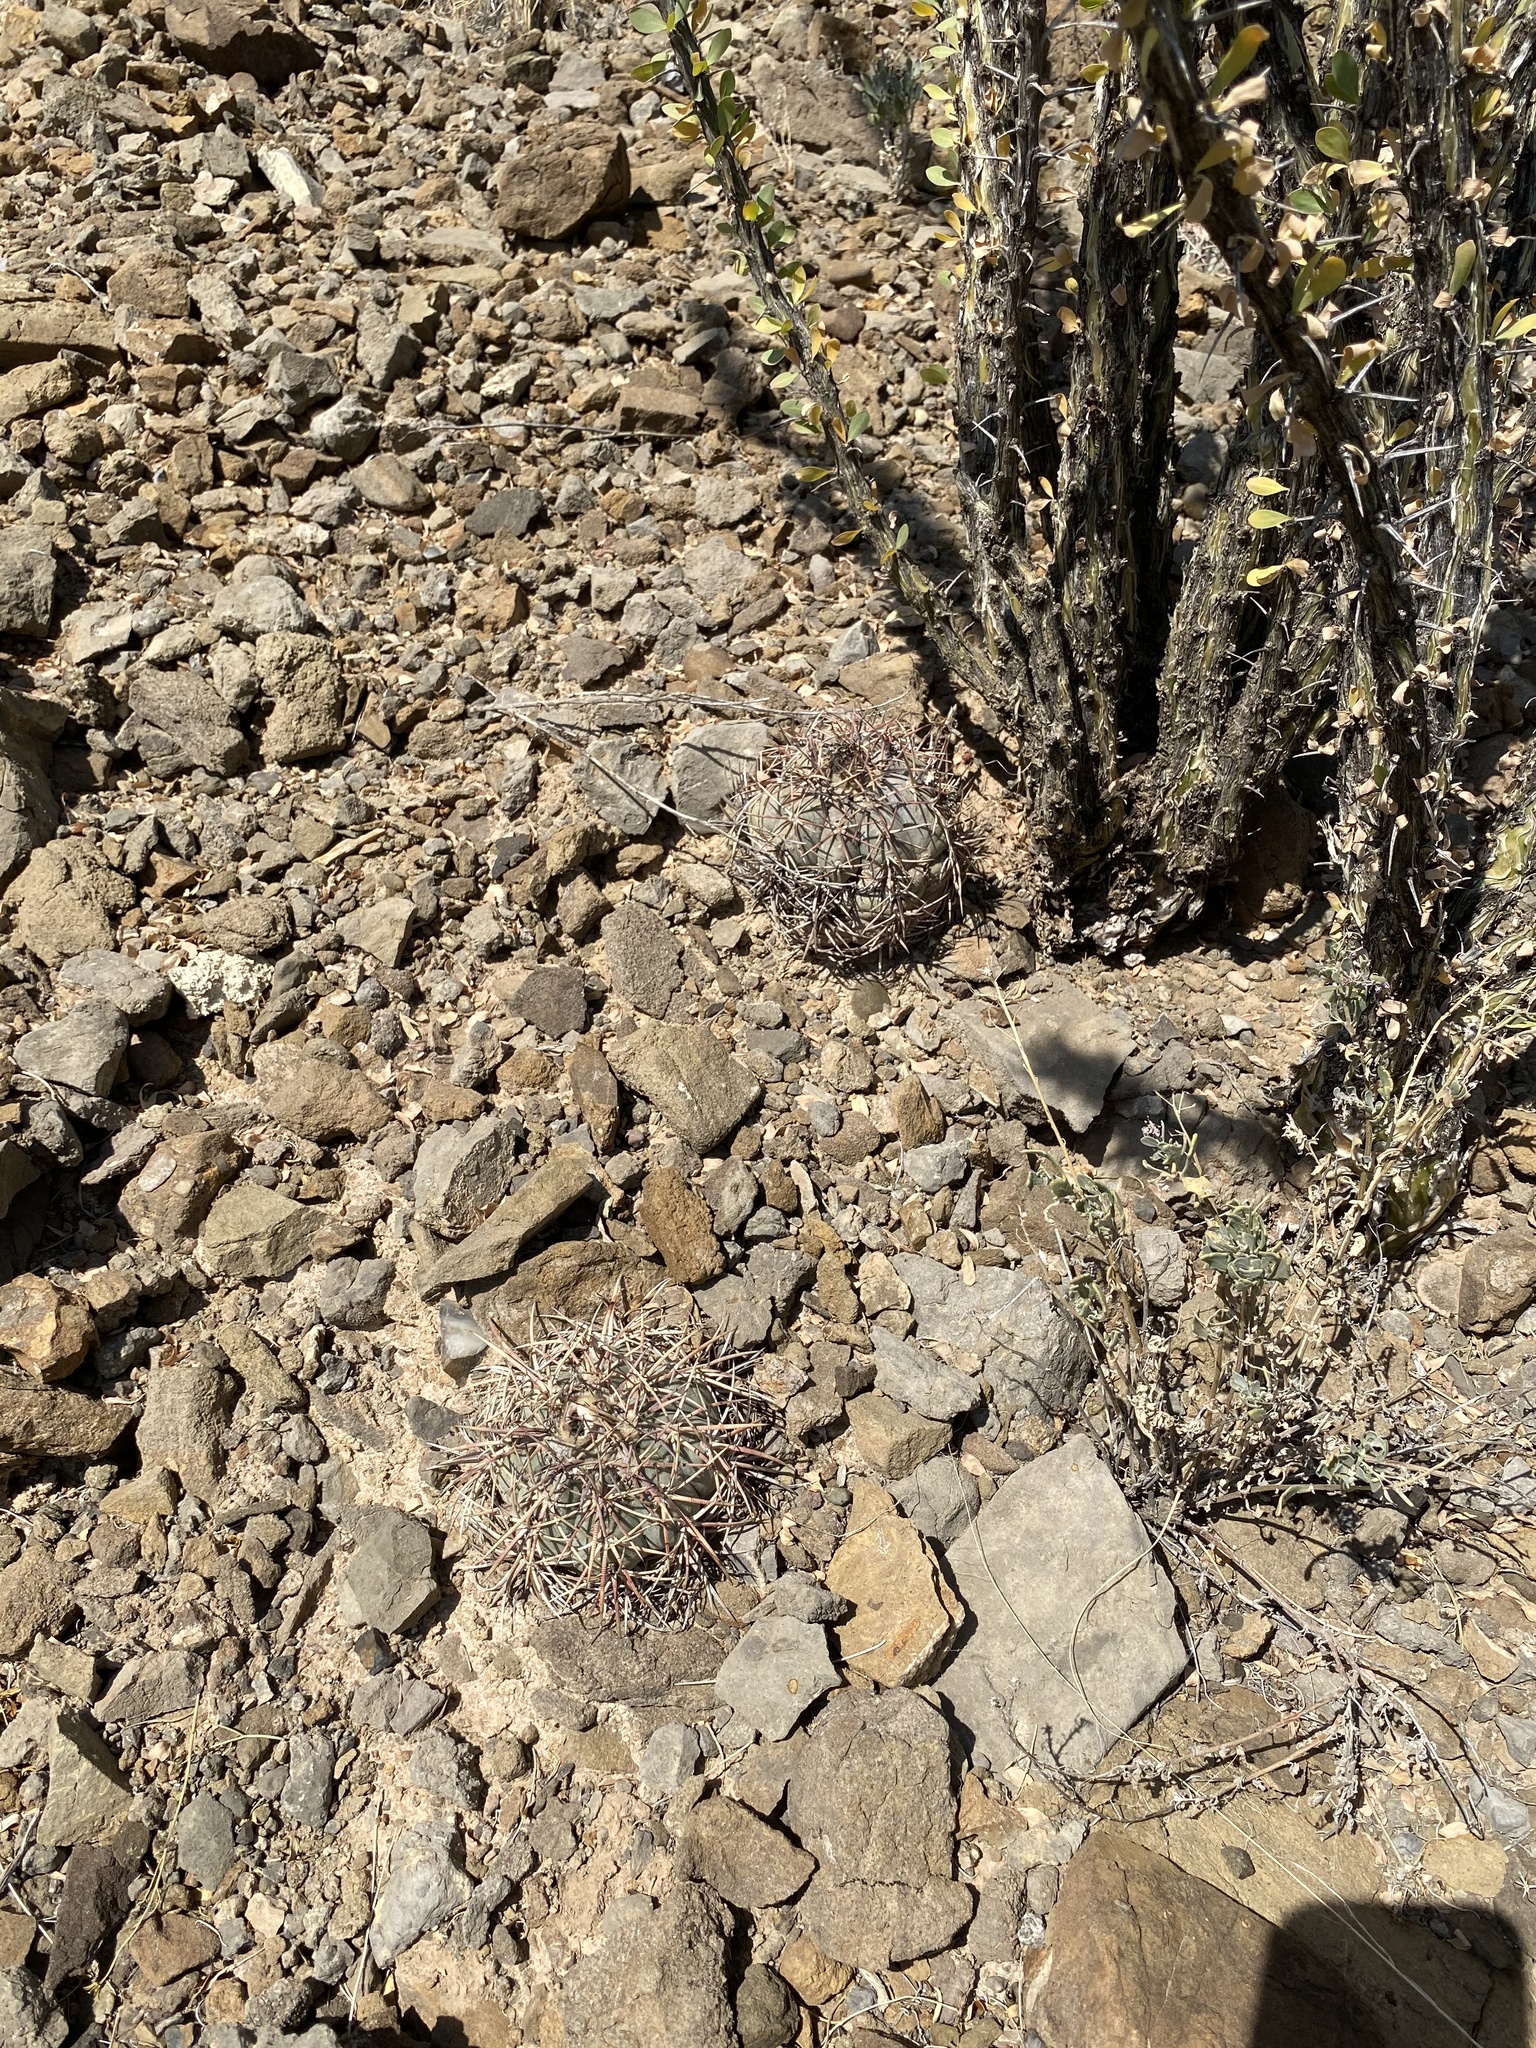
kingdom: Plantae
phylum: Tracheophyta
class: Magnoliopsida
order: Caryophyllales
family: Cactaceae
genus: Echinocactus
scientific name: Echinocactus horizonthalonius
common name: Devilshead
